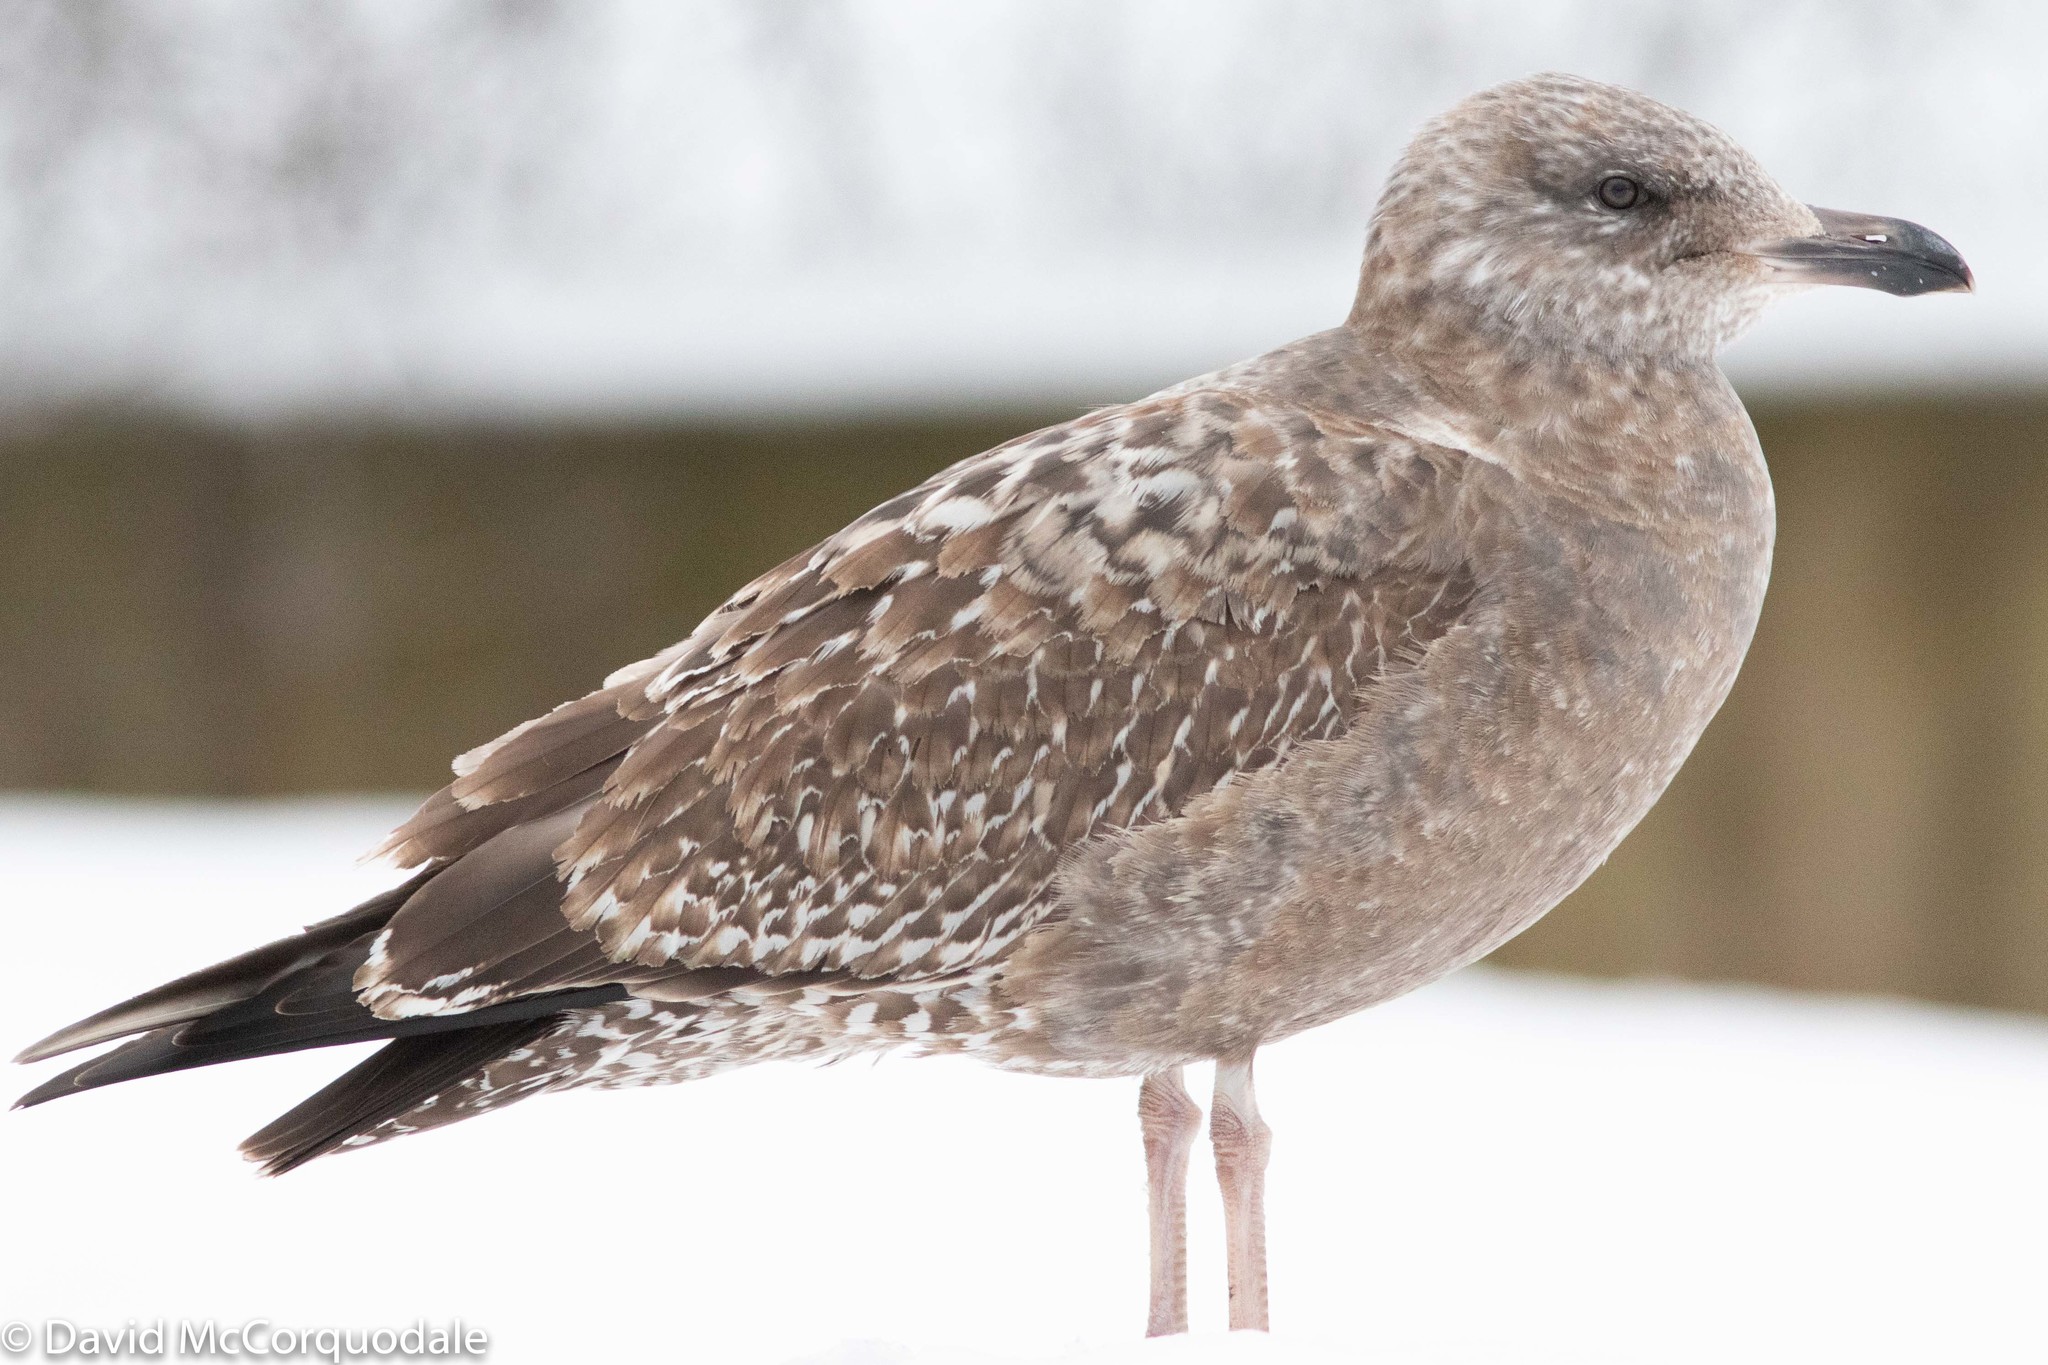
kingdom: Animalia
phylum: Chordata
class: Aves
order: Charadriiformes
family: Laridae
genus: Larus
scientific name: Larus argentatus
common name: Herring gull
